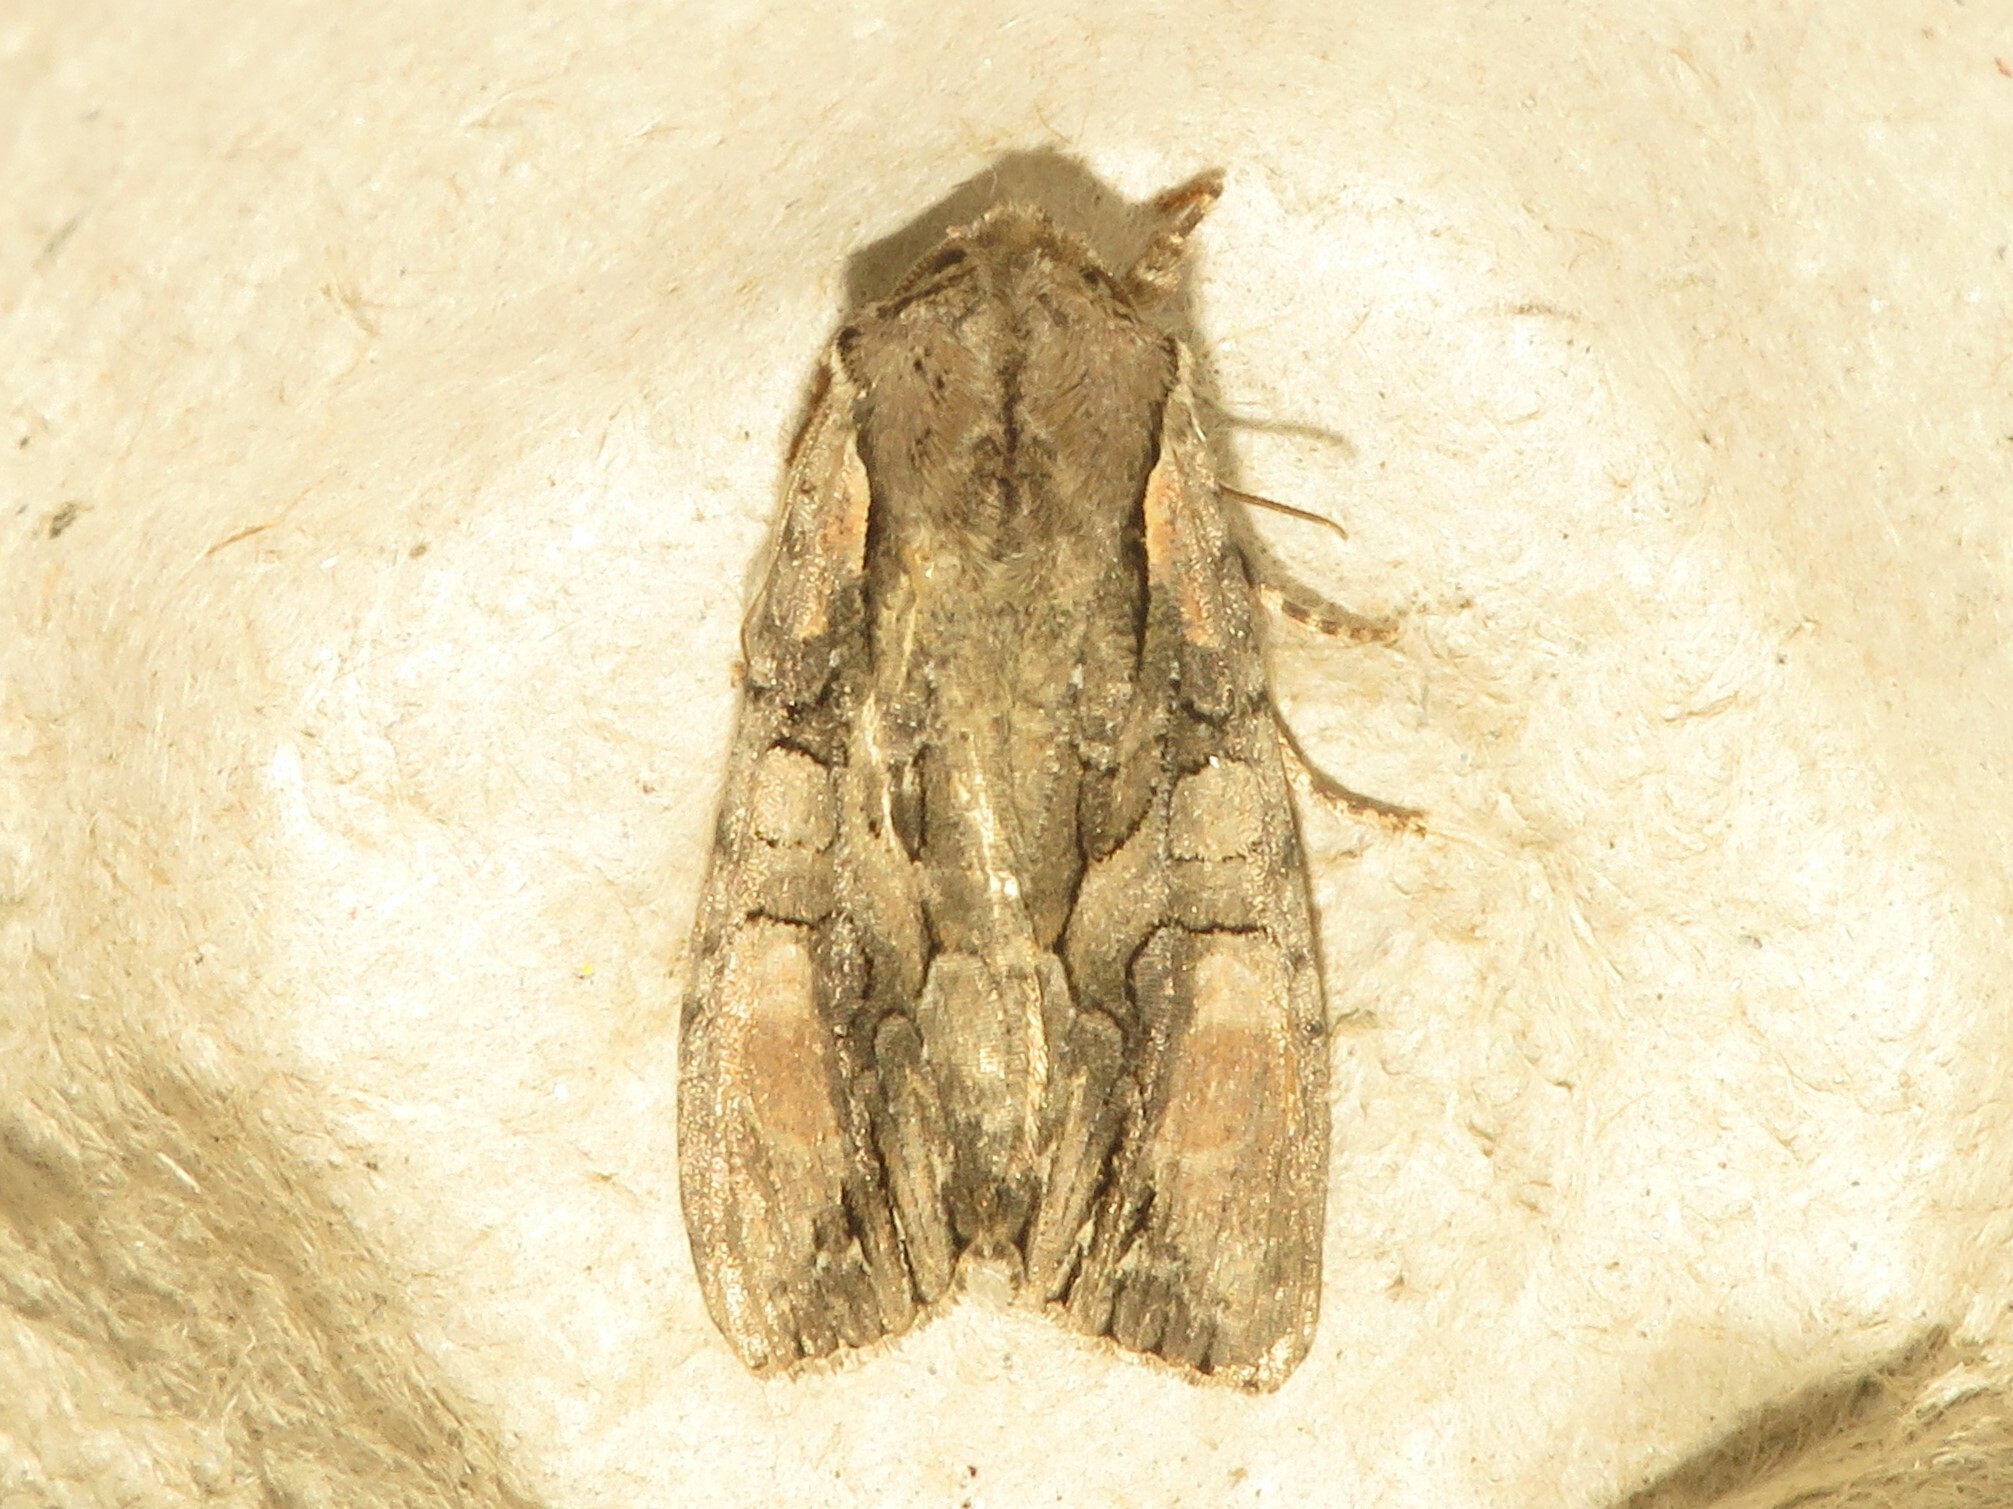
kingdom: Animalia
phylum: Arthropoda
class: Insecta
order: Lepidoptera
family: Noctuidae
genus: Lacanobia
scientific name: Lacanobia subjuncta
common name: Speckled cutworm moth
